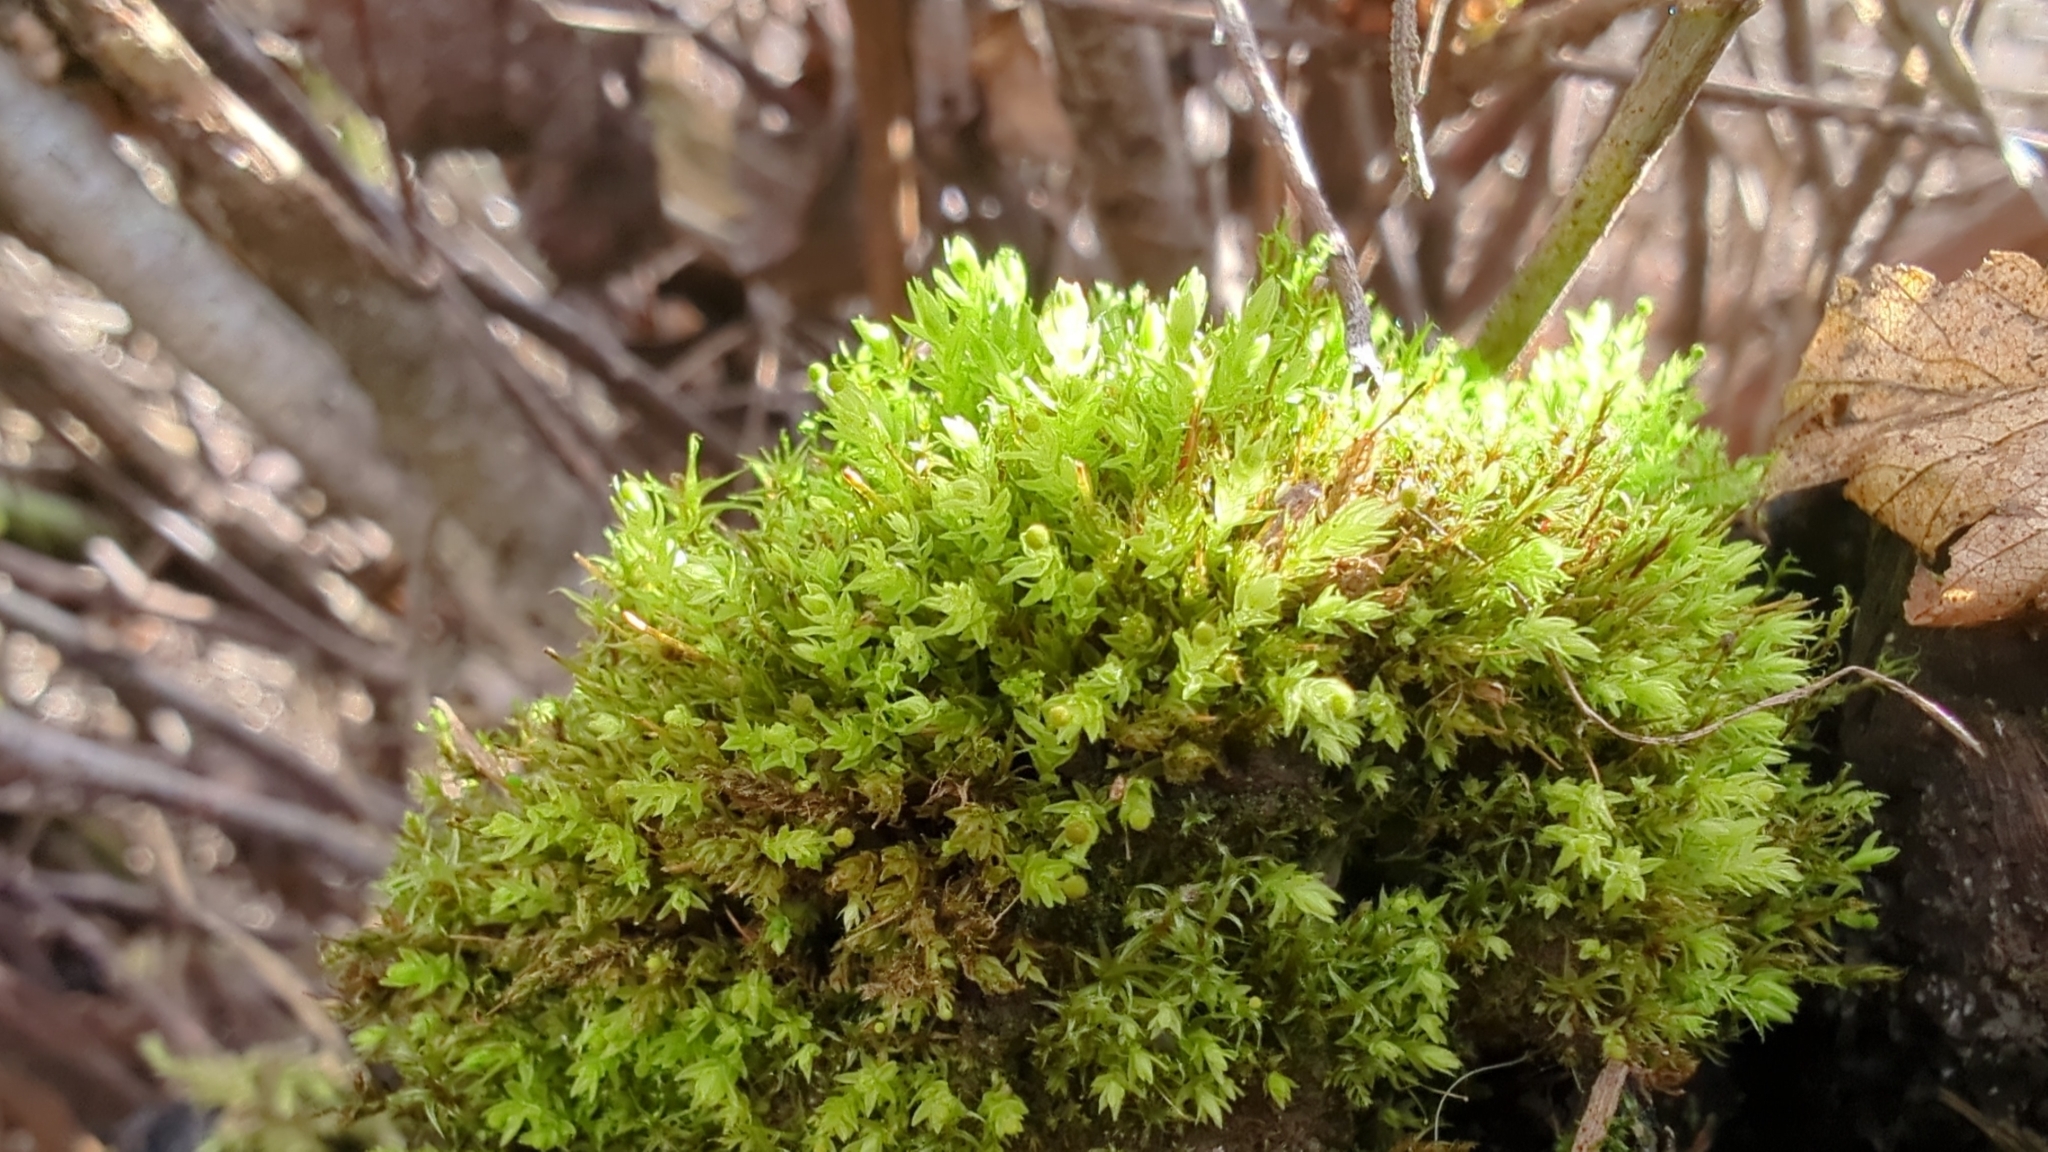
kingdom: Plantae
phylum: Bryophyta
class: Bryopsida
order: Aulacomniales
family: Aulacomniaceae
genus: Aulacomnium
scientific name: Aulacomnium androgynum
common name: Little groove moss
